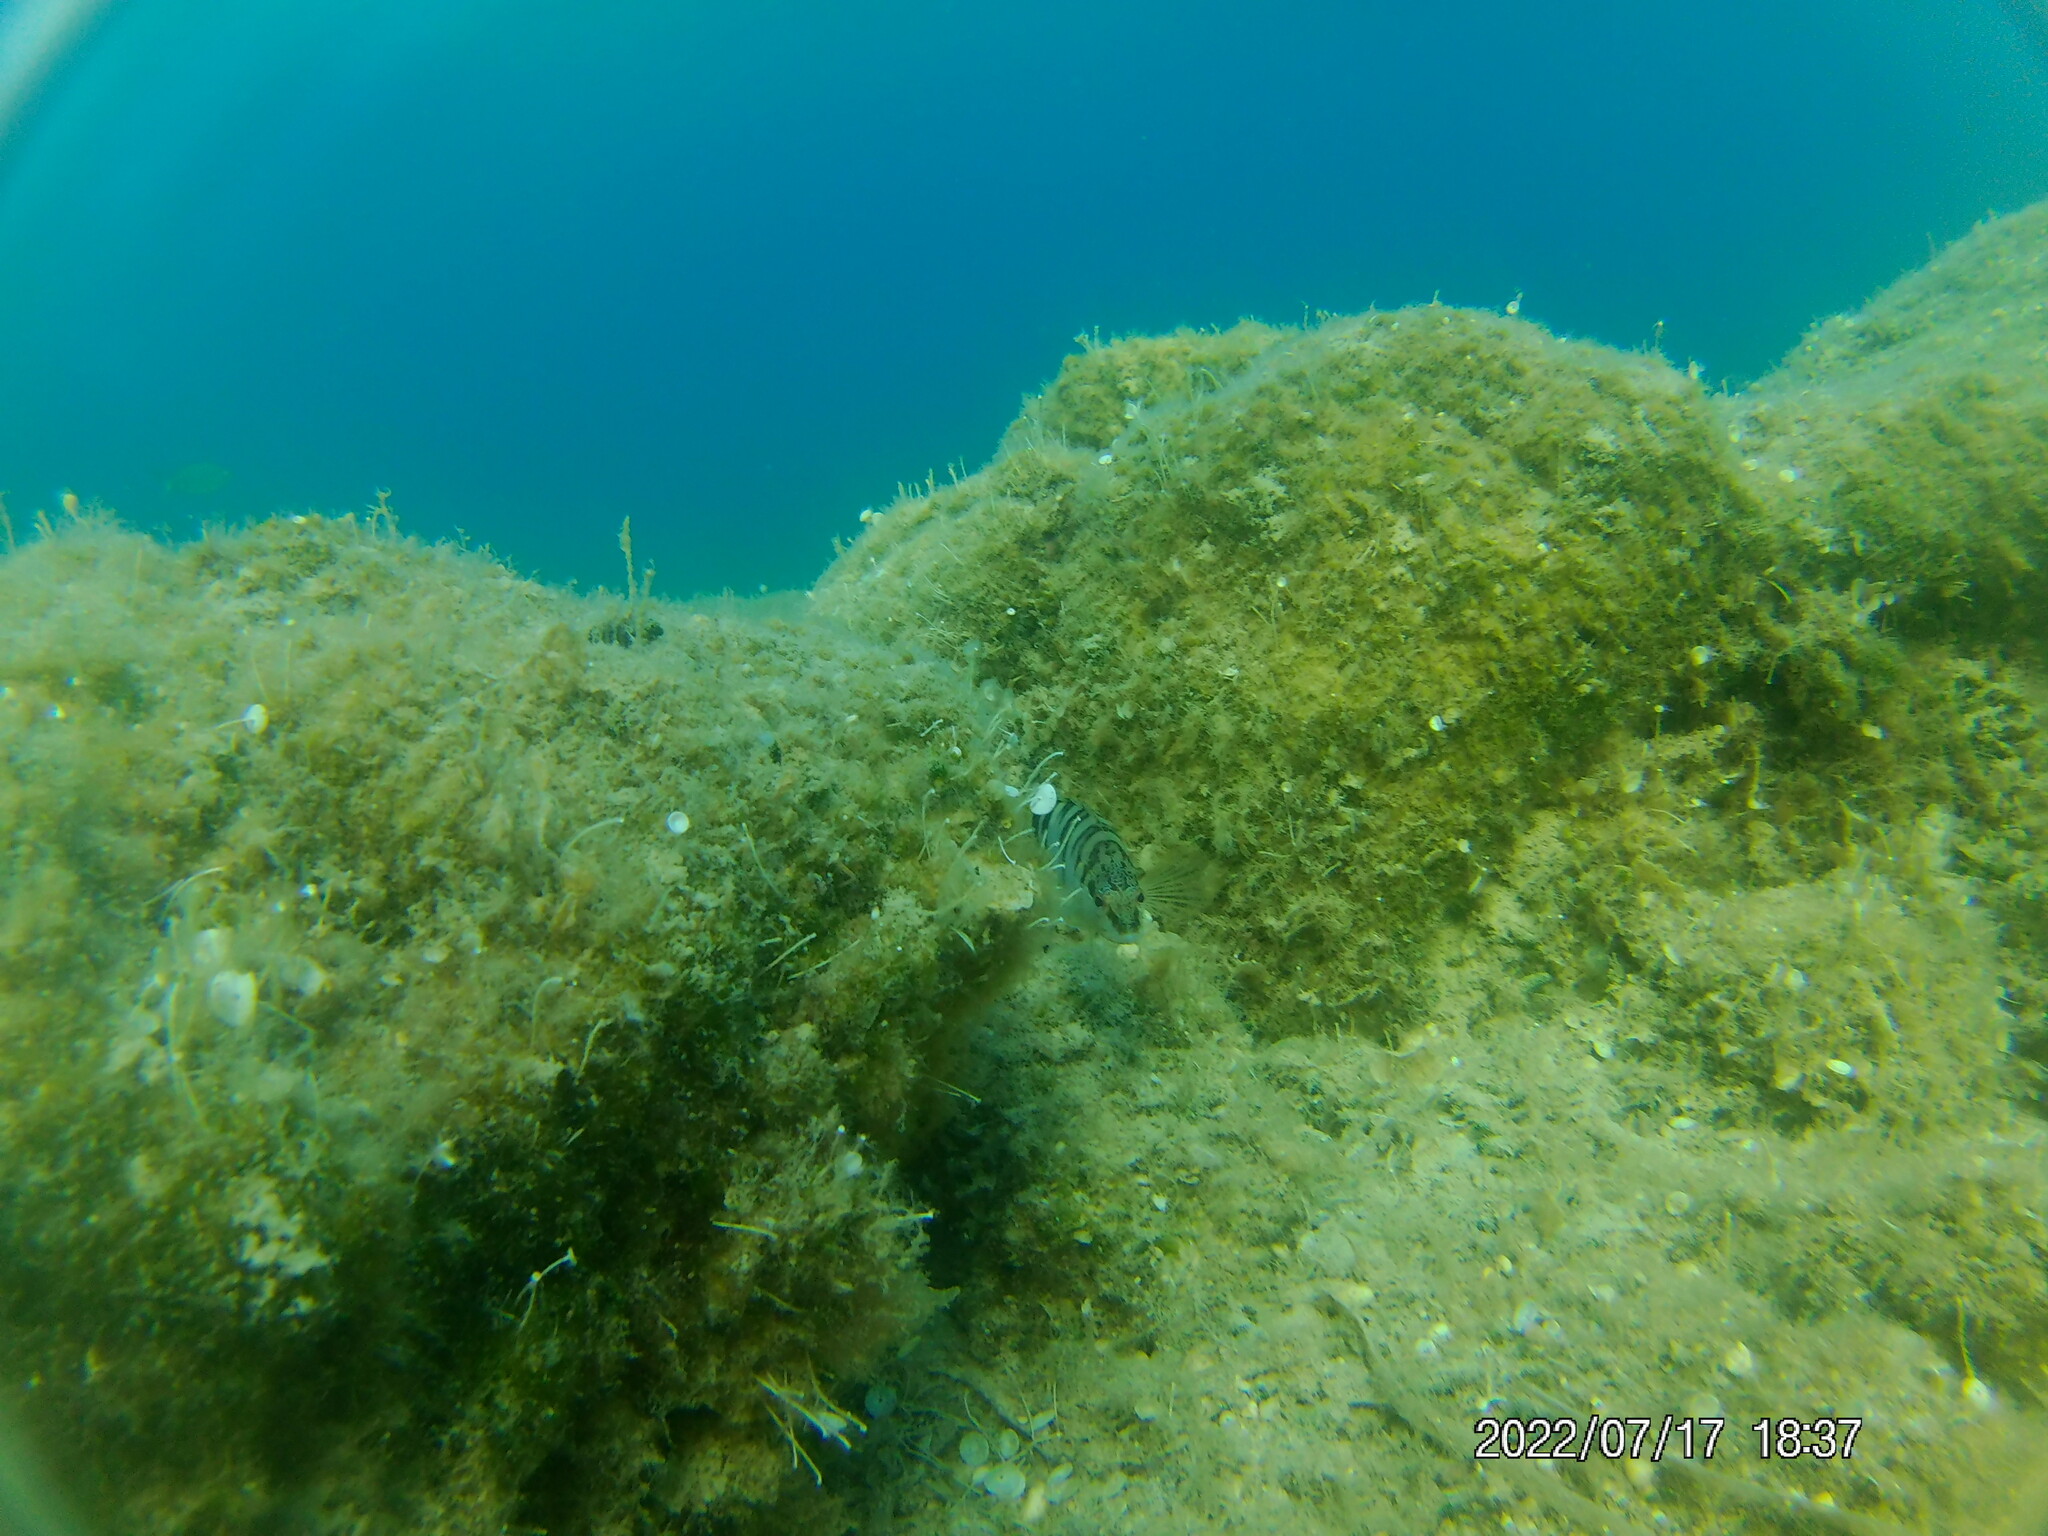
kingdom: Animalia
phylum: Chordata
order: Perciformes
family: Serranidae
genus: Serranus
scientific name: Serranus scriba
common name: Painted comber
